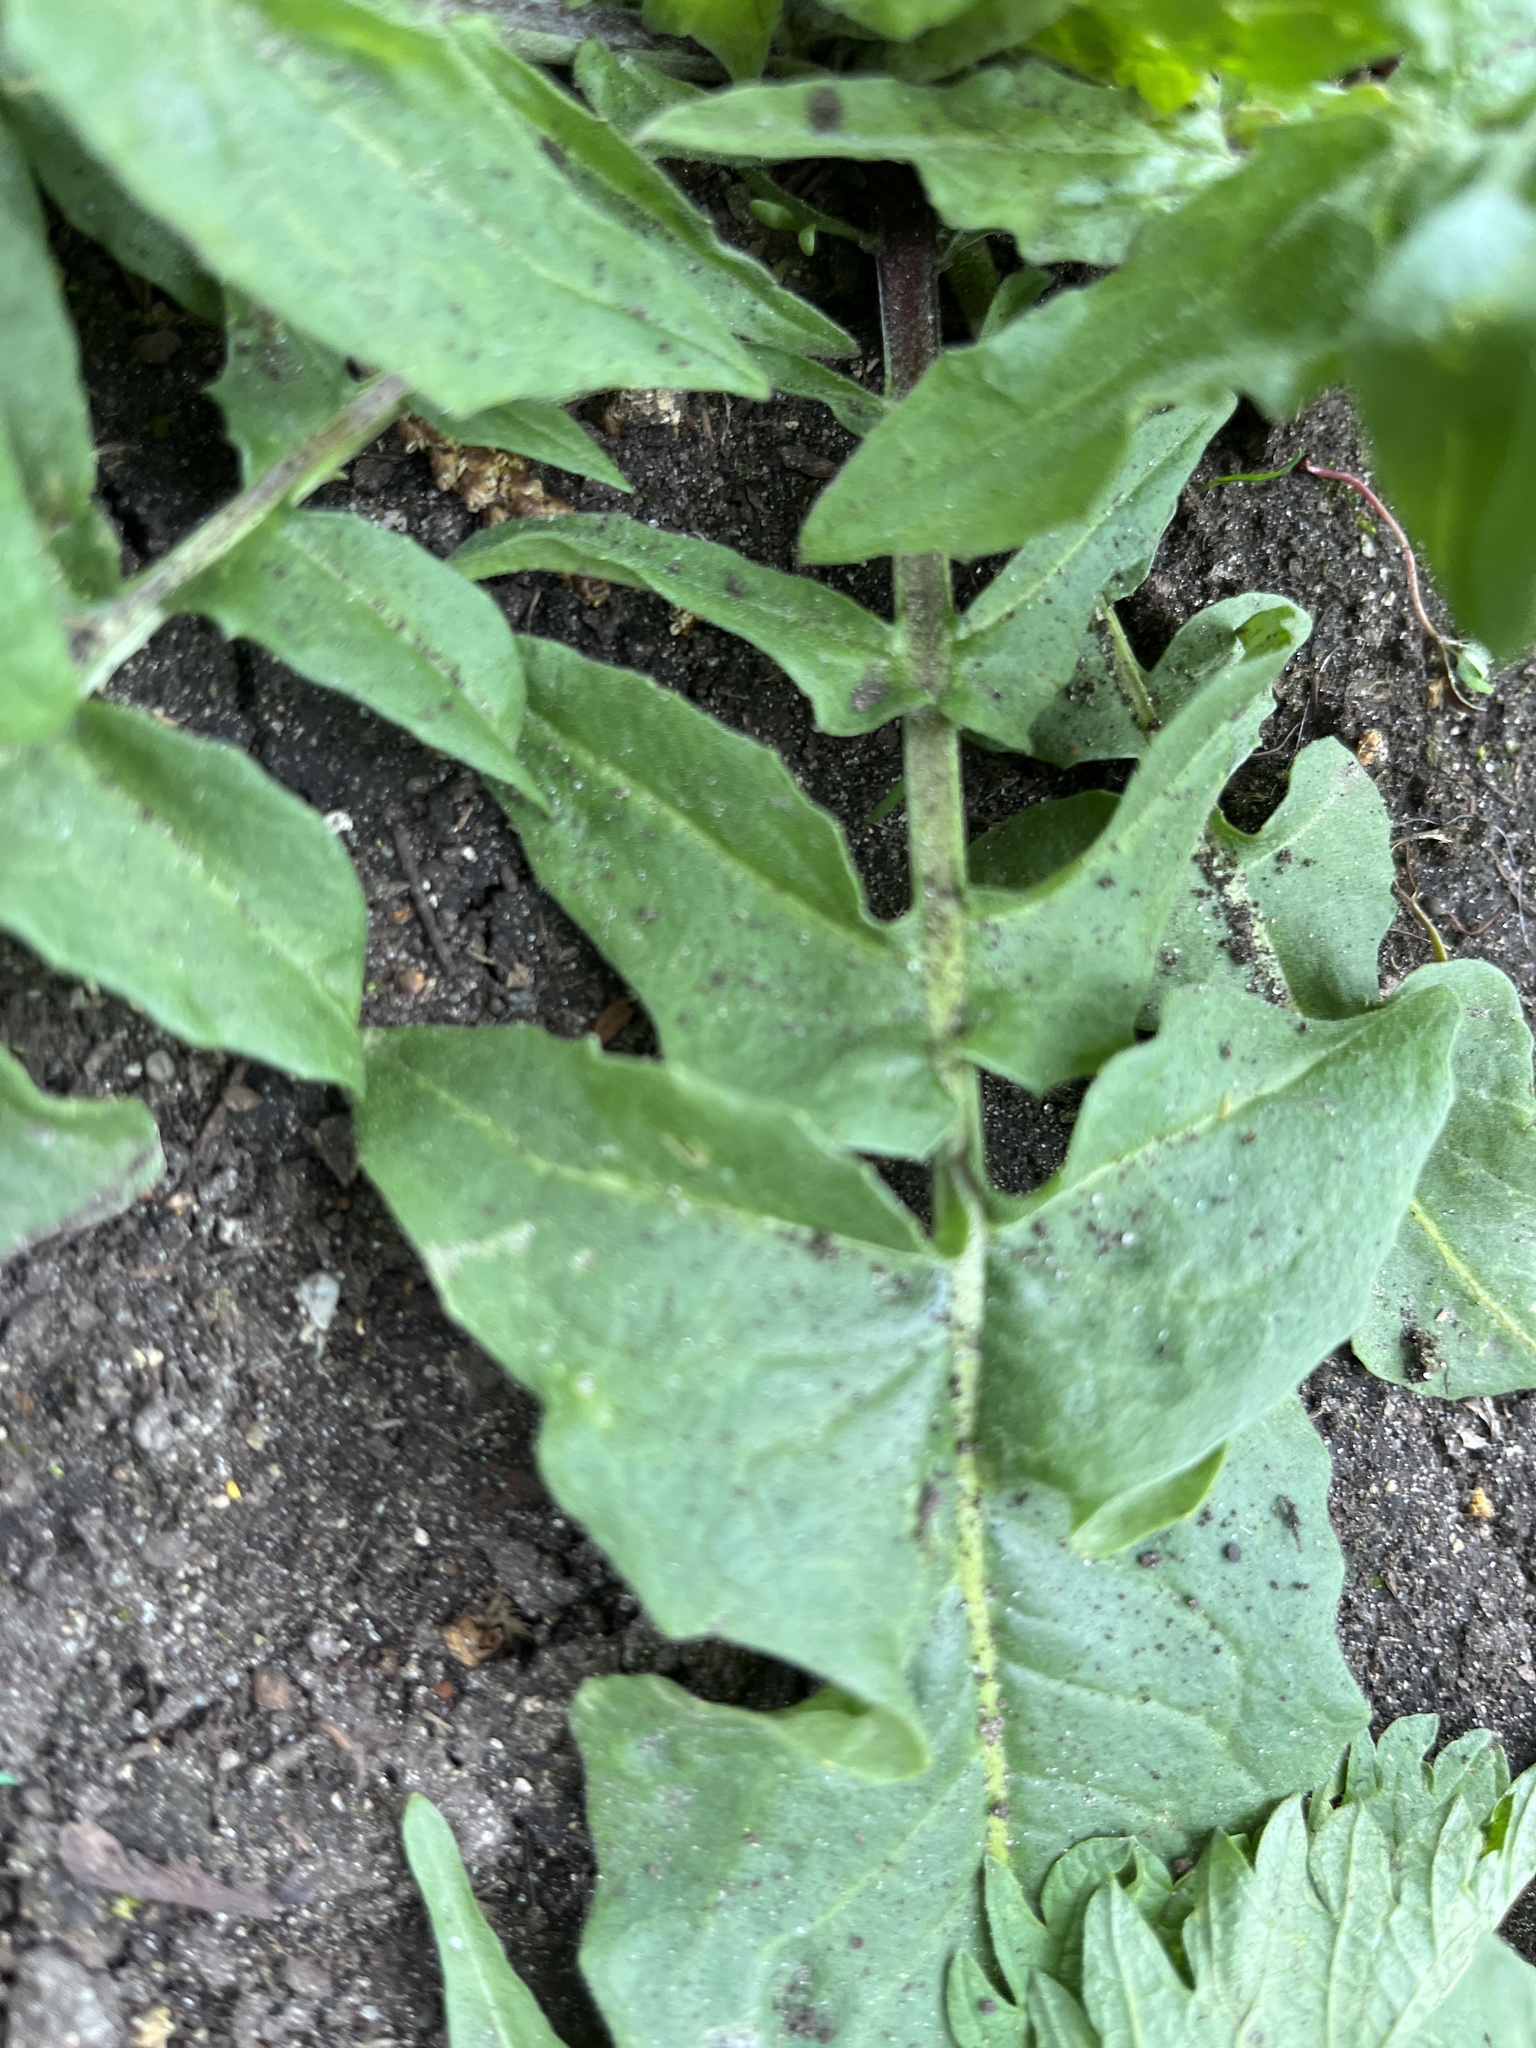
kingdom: Plantae
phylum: Tracheophyta
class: Magnoliopsida
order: Brassicales
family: Brassicaceae
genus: Bunias
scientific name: Bunias orientalis
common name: Warty-cabbage
